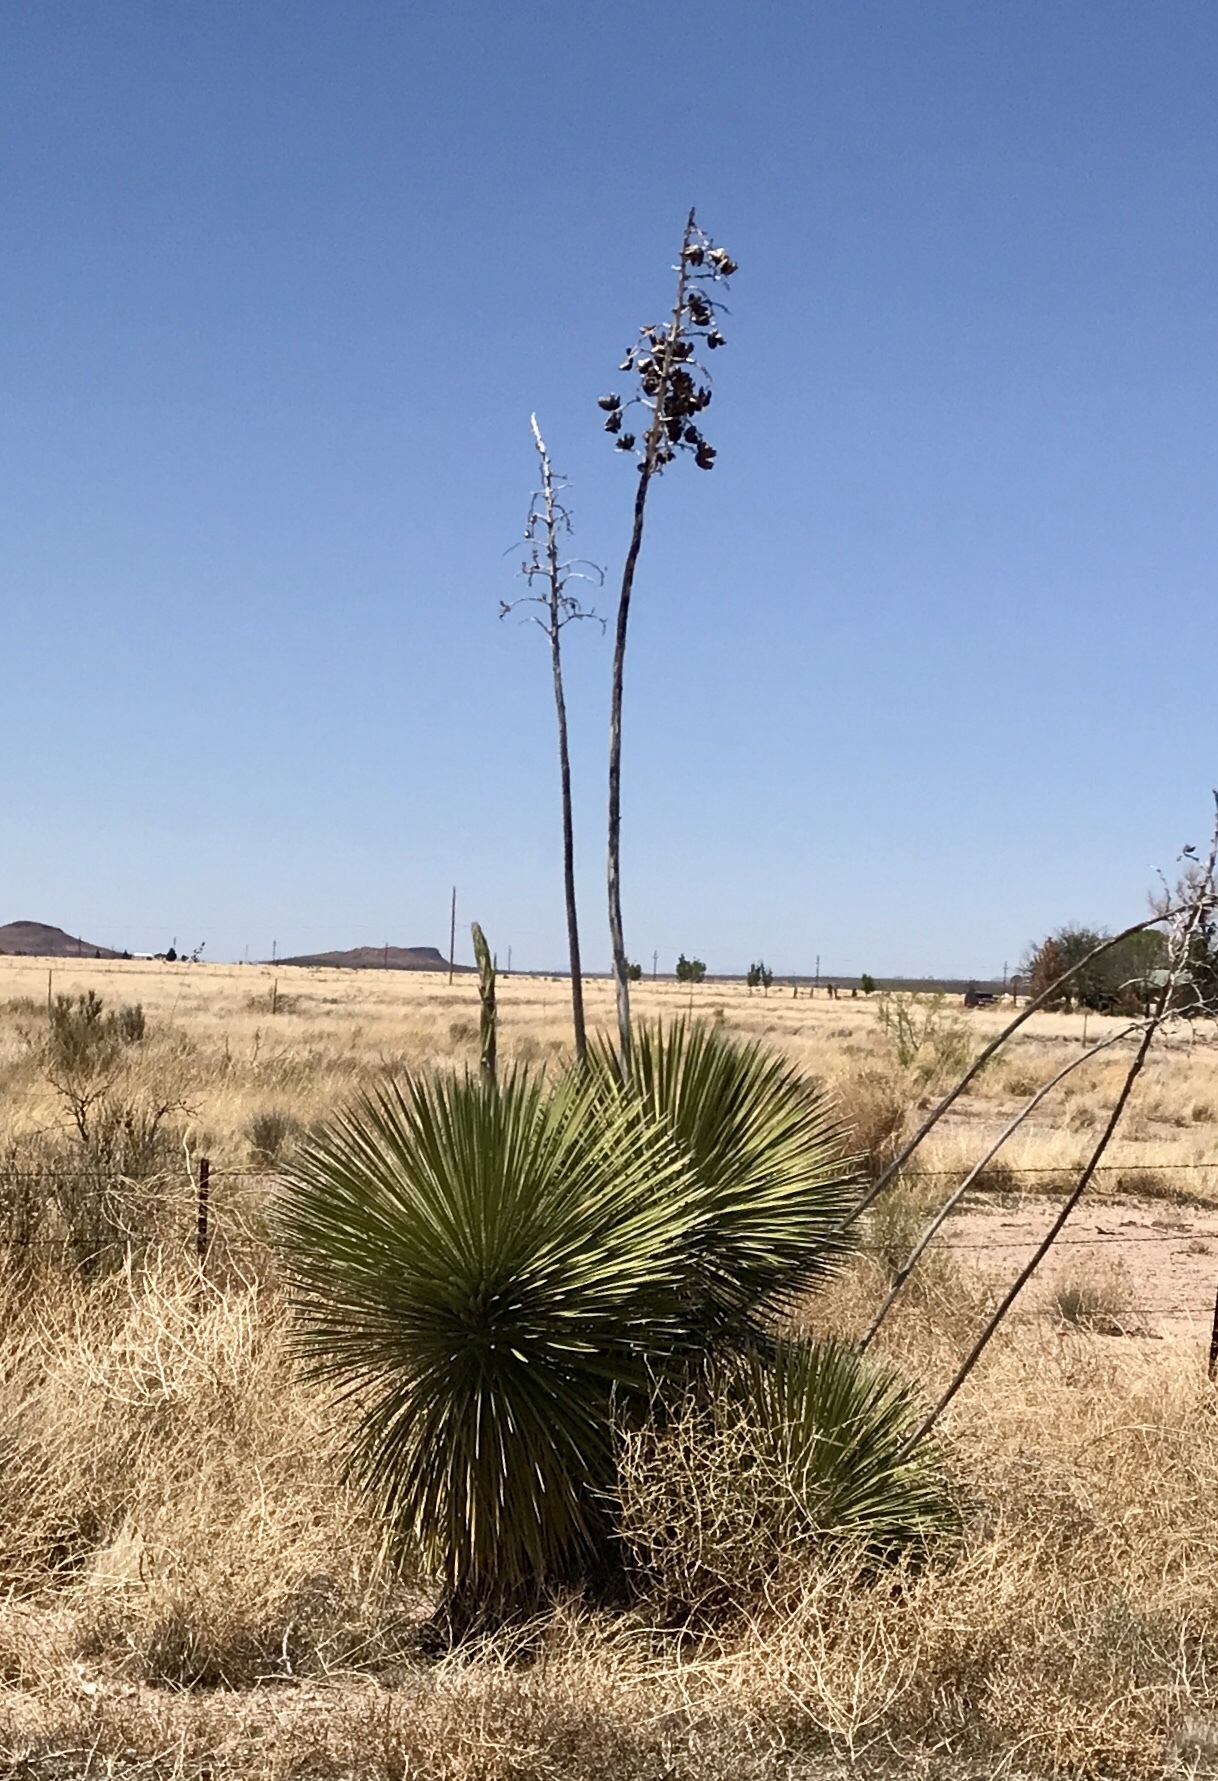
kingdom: Plantae
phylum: Tracheophyta
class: Liliopsida
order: Asparagales
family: Asparagaceae
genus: Yucca
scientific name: Yucca elata
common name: Palmella
